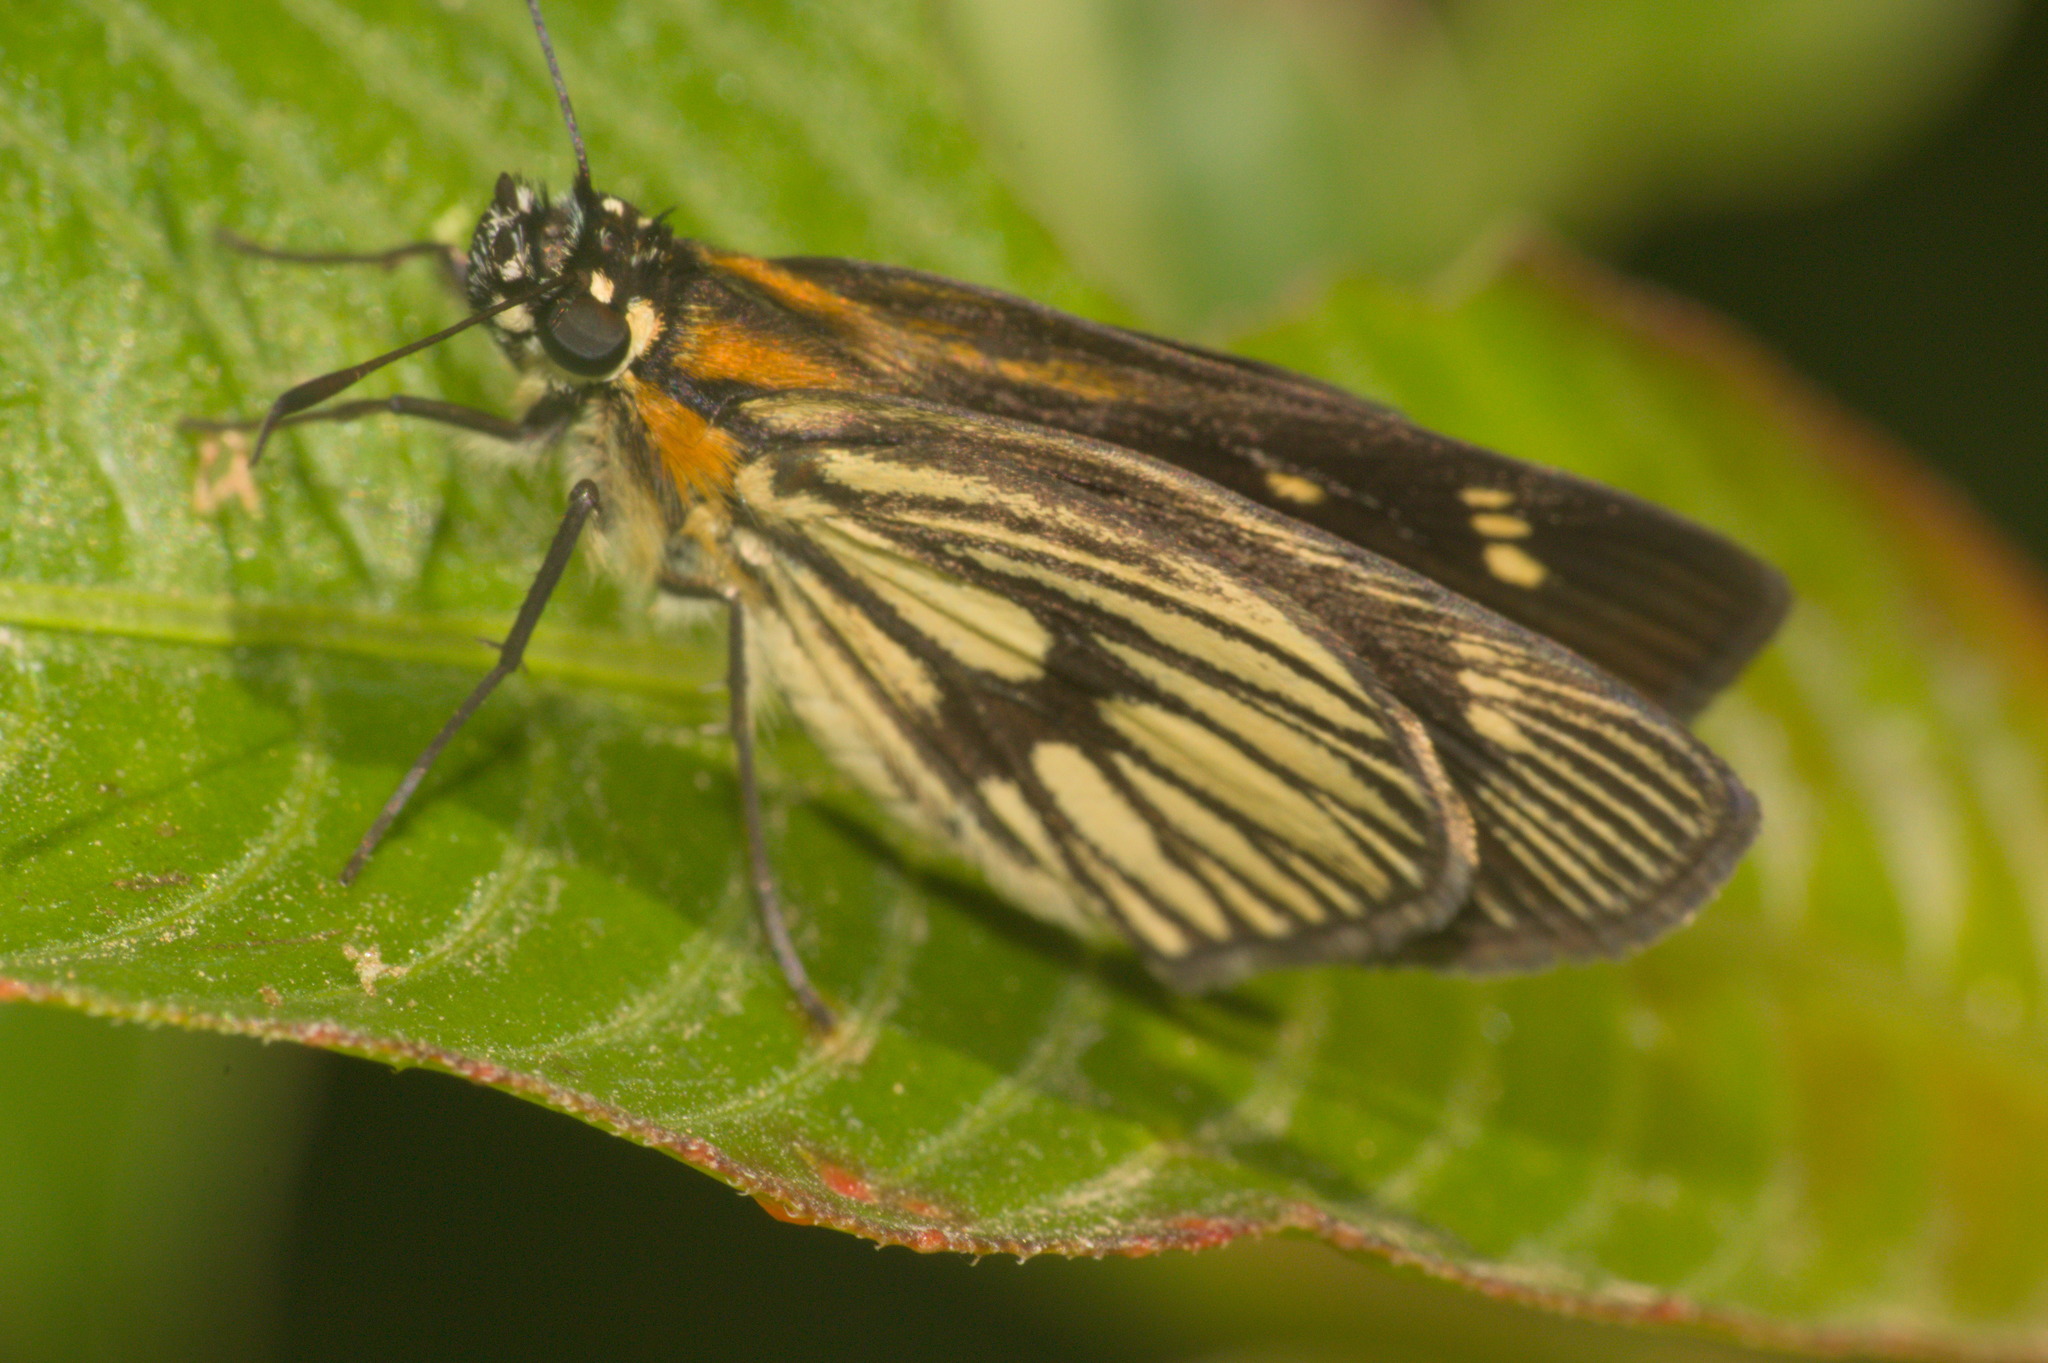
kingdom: Animalia
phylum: Arthropoda
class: Insecta
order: Lepidoptera
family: Hesperiidae
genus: Vehilius
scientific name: Vehilius clavicula
